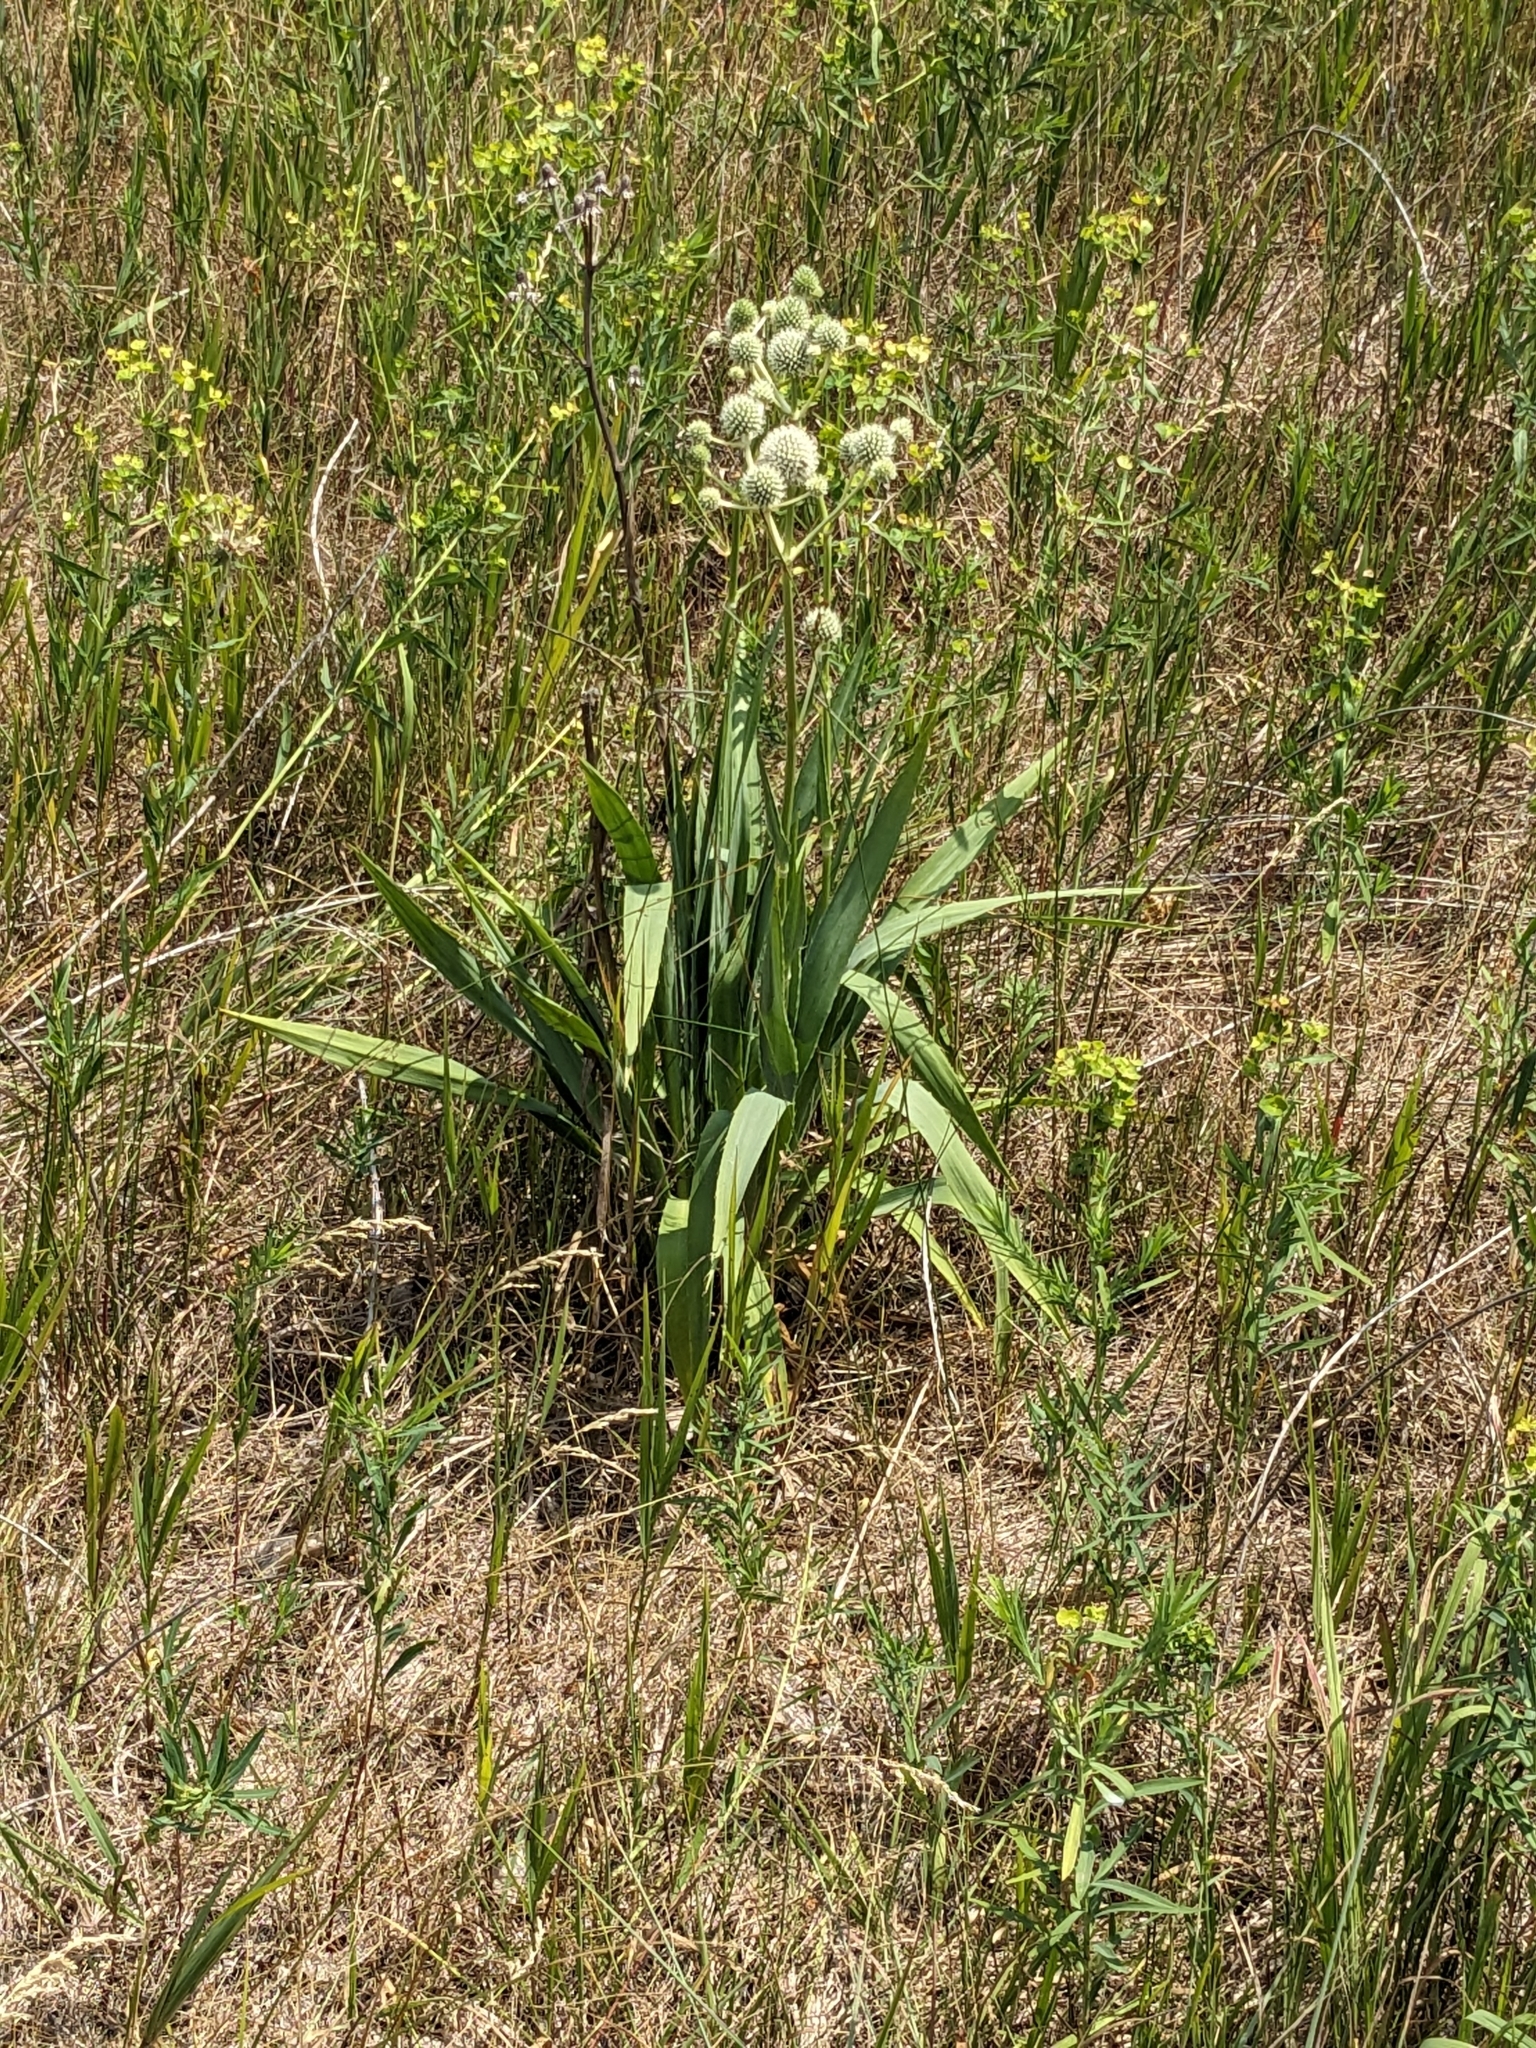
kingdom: Plantae
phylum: Tracheophyta
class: Magnoliopsida
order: Apiales
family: Apiaceae
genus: Eryngium
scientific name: Eryngium yuccifolium
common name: Button eryngo
